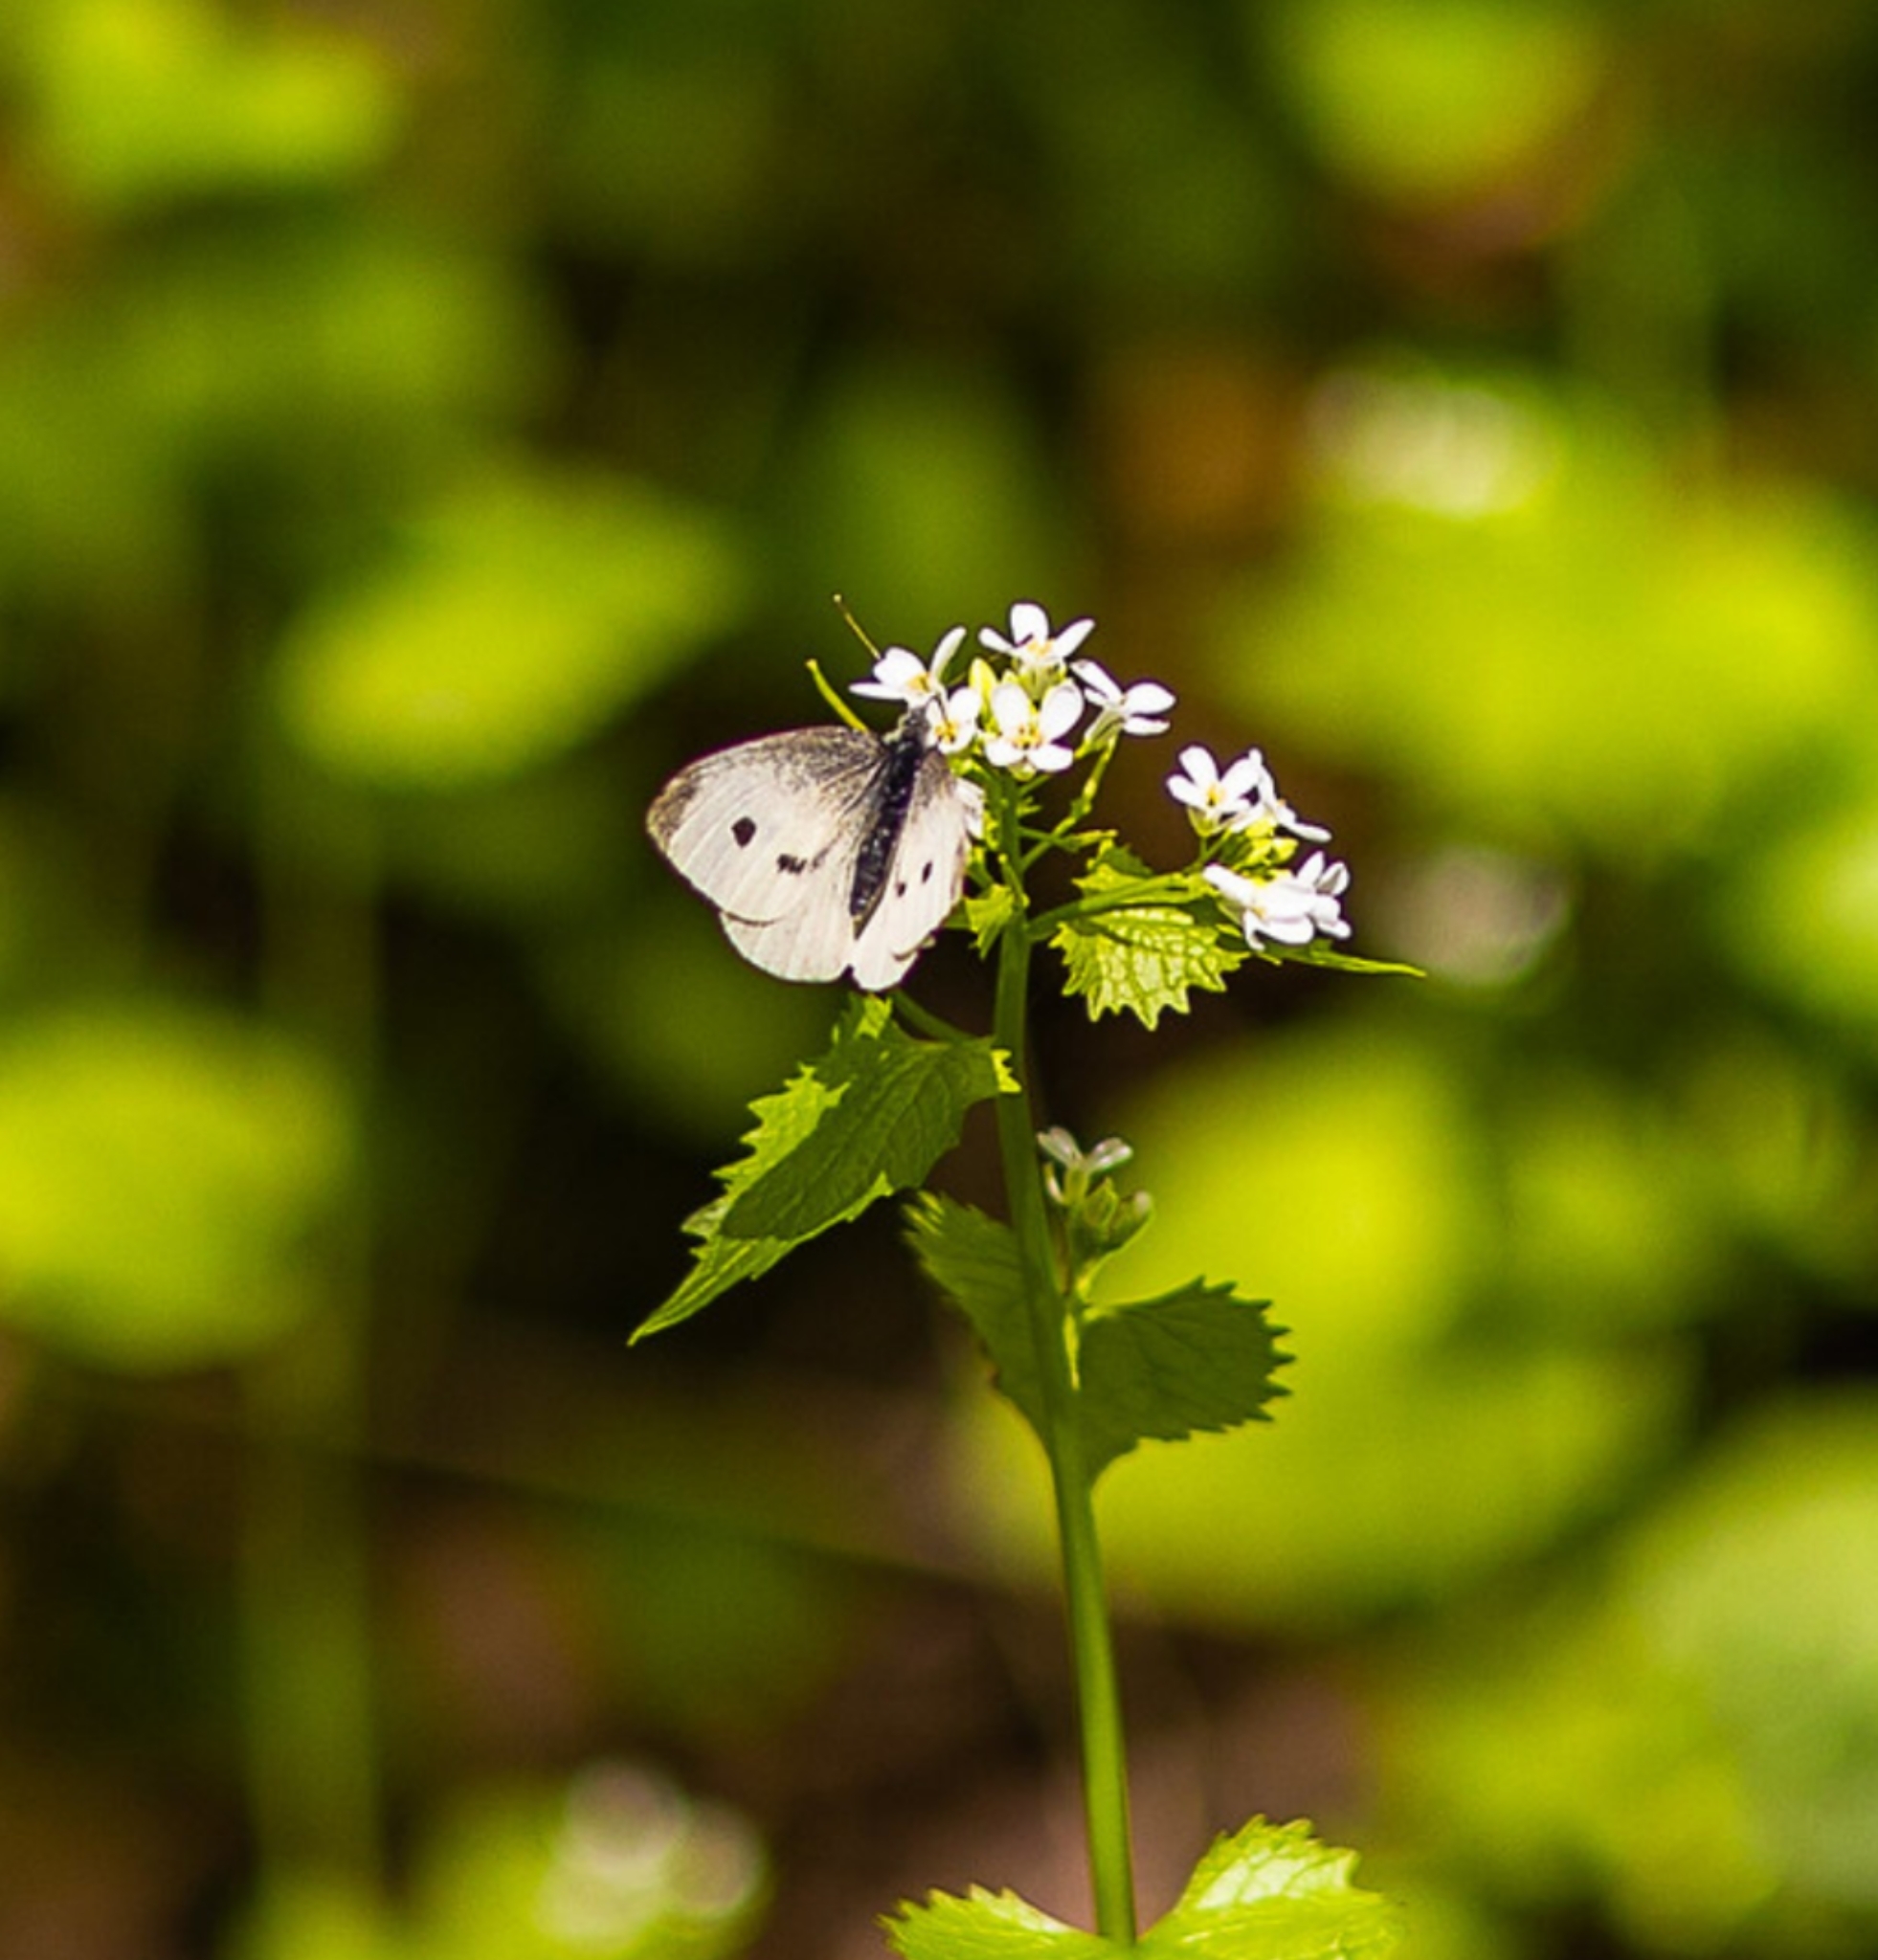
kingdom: Animalia
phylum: Arthropoda
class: Insecta
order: Lepidoptera
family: Pieridae
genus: Pieris
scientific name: Pieris rapae
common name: Small white
